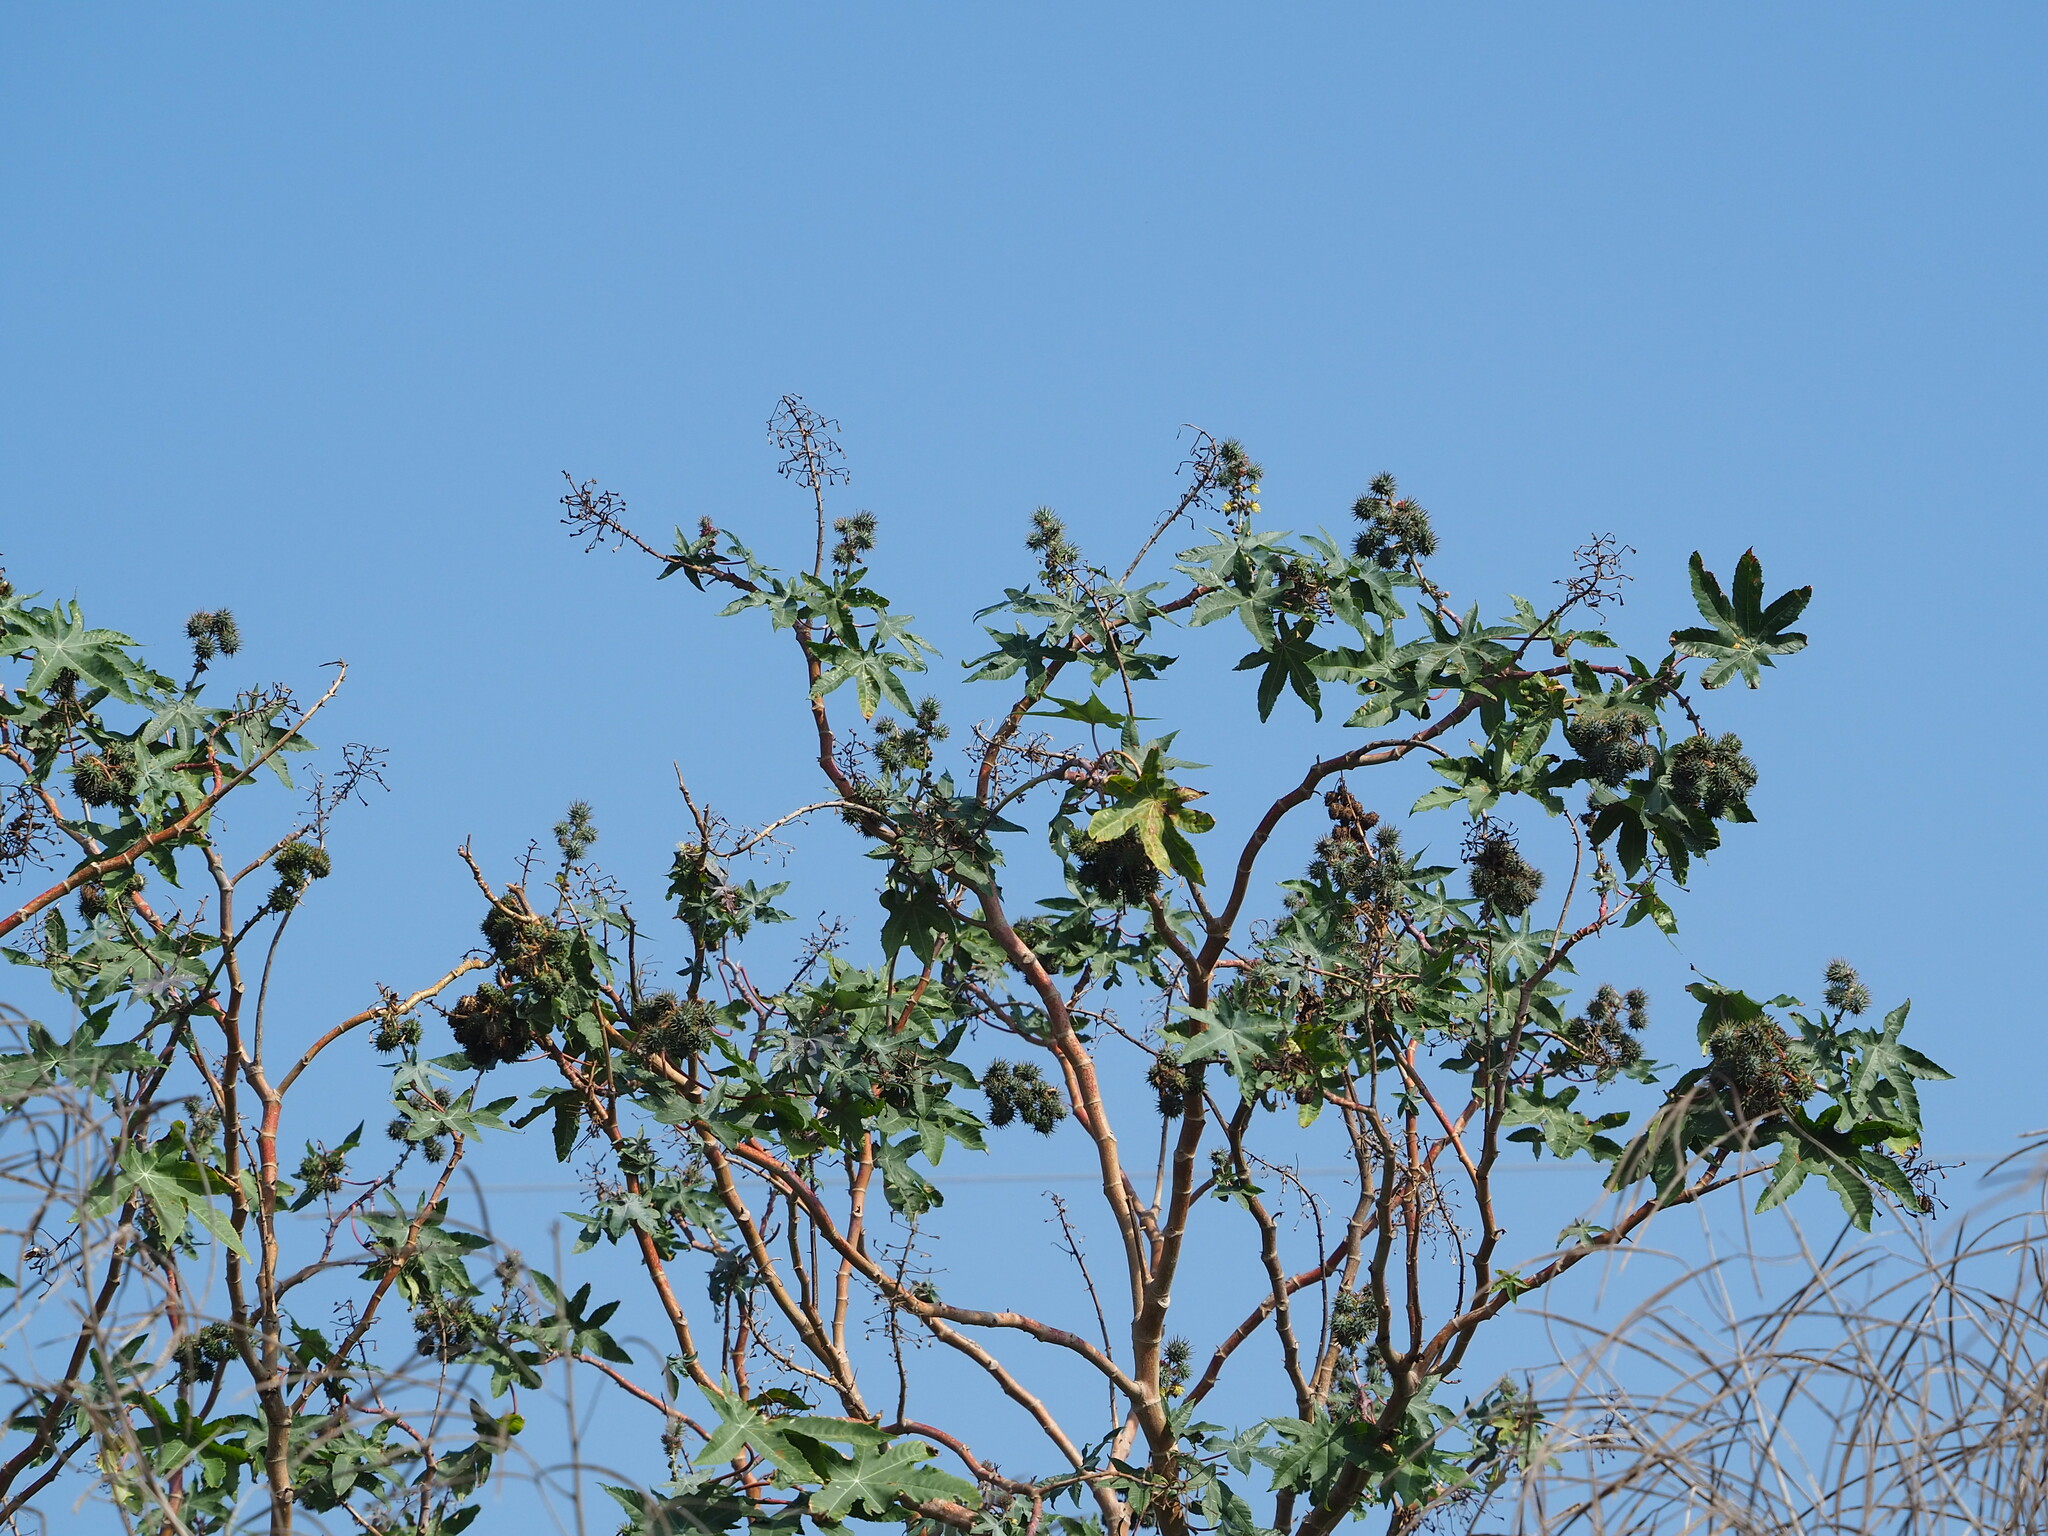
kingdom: Plantae
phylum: Tracheophyta
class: Magnoliopsida
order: Malpighiales
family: Euphorbiaceae
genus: Ricinus
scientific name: Ricinus communis
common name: Castor-oil-plant
